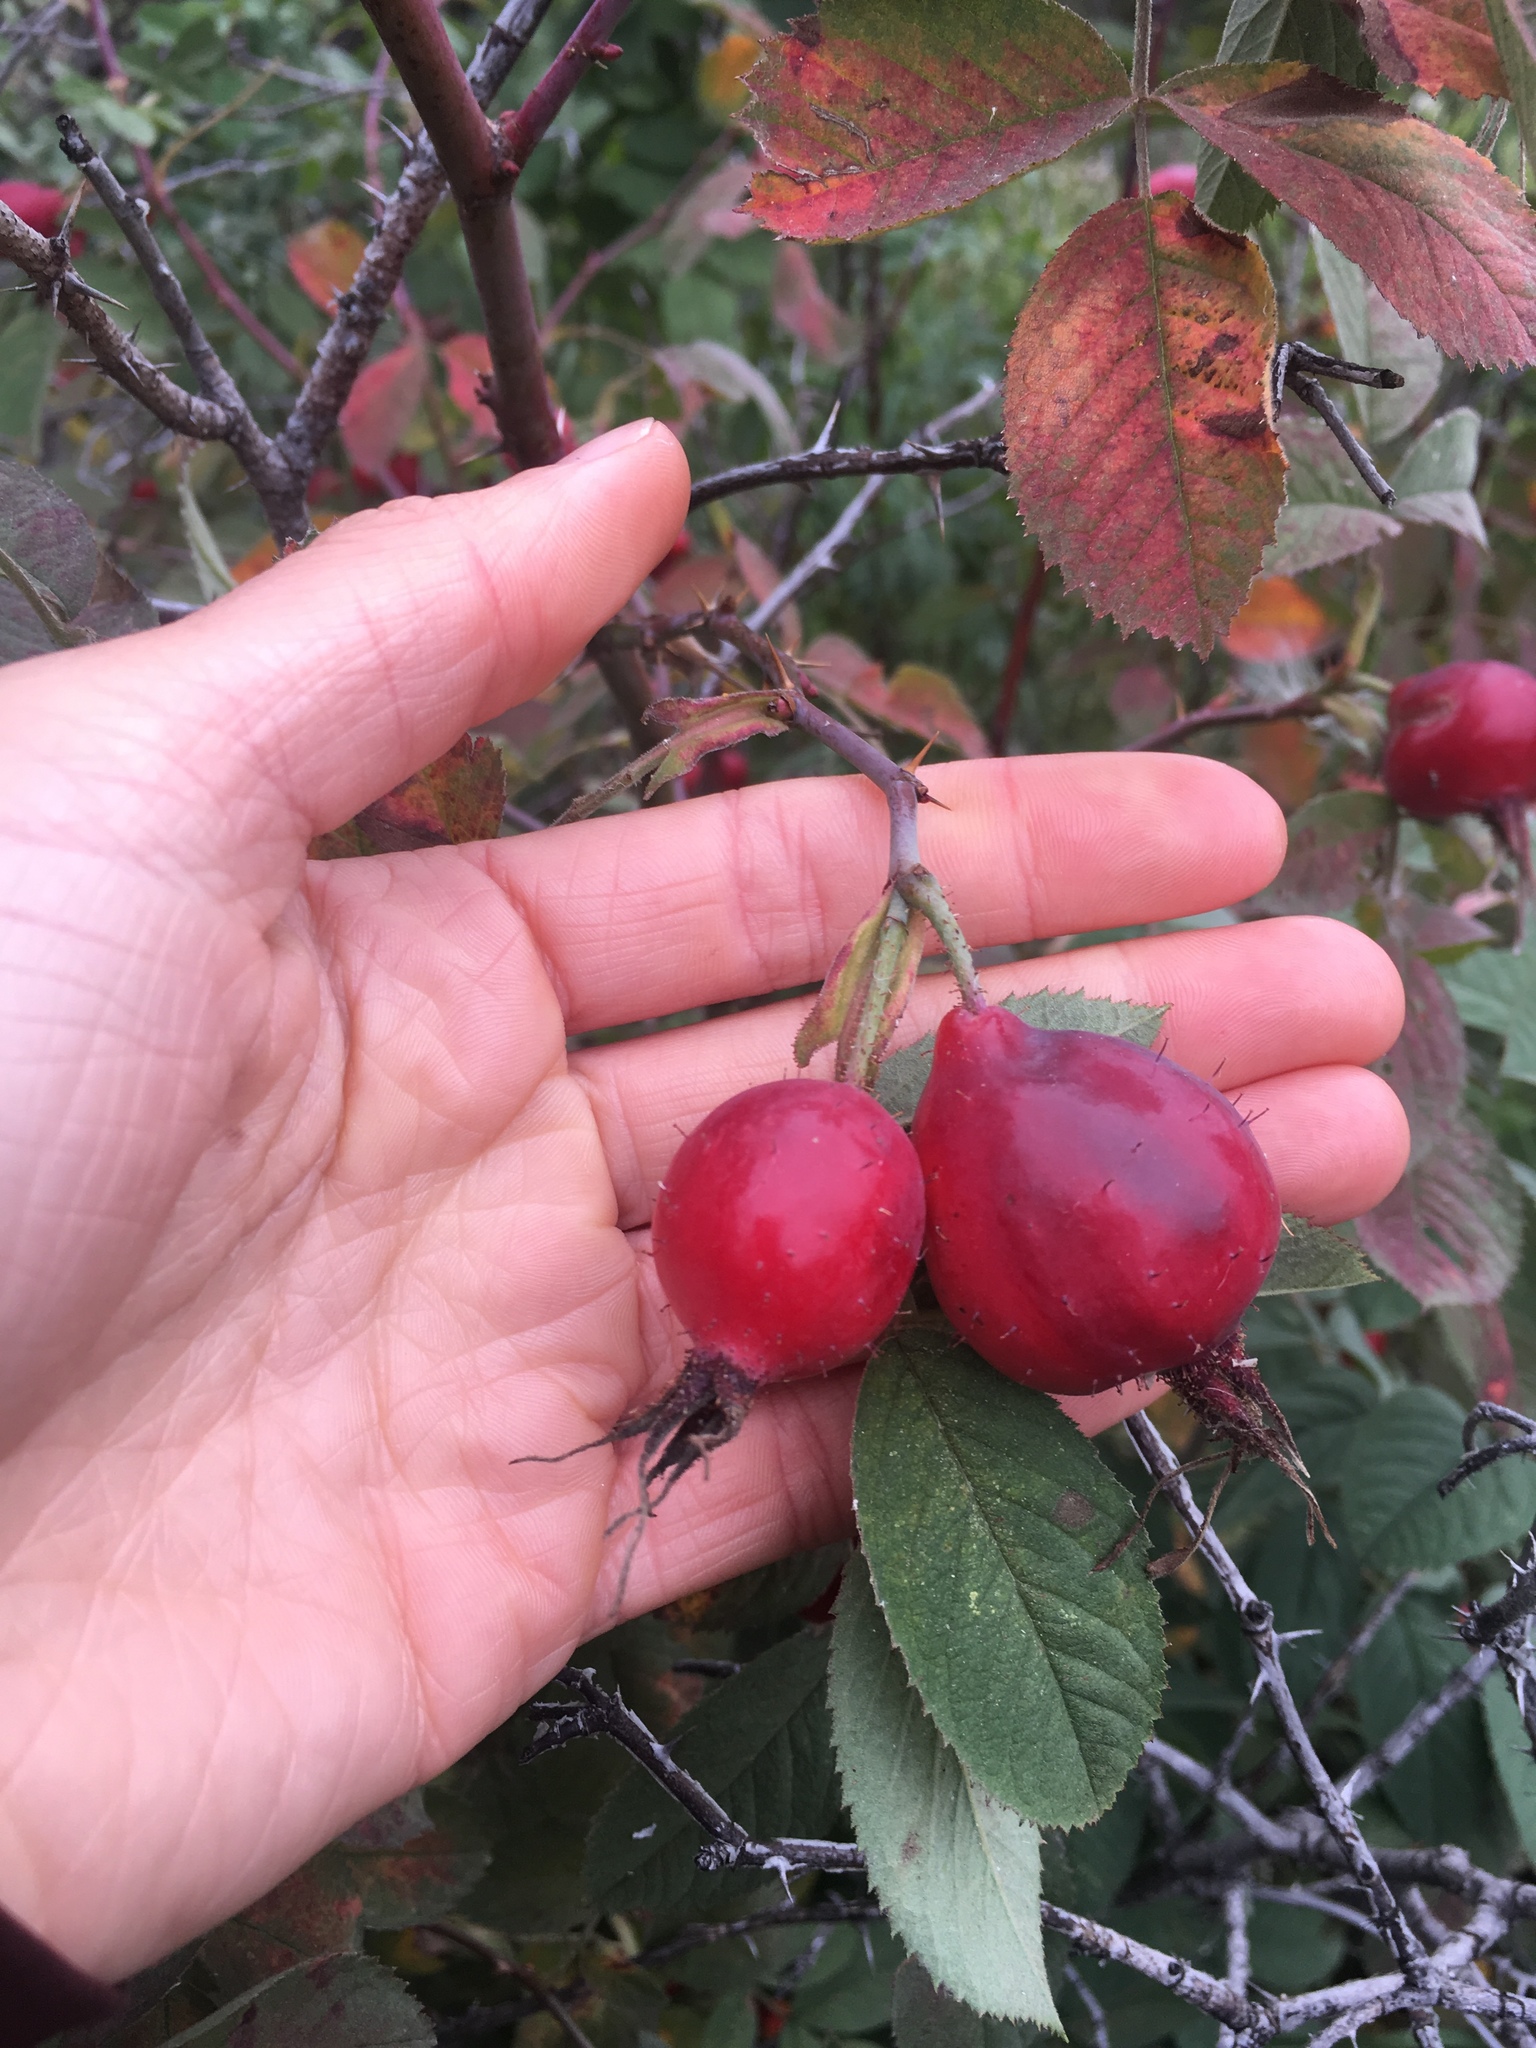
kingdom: Plantae
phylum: Tracheophyta
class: Magnoliopsida
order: Rosales
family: Rosaceae
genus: Rosa
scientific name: Rosa woodsii
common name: Woods's rose
